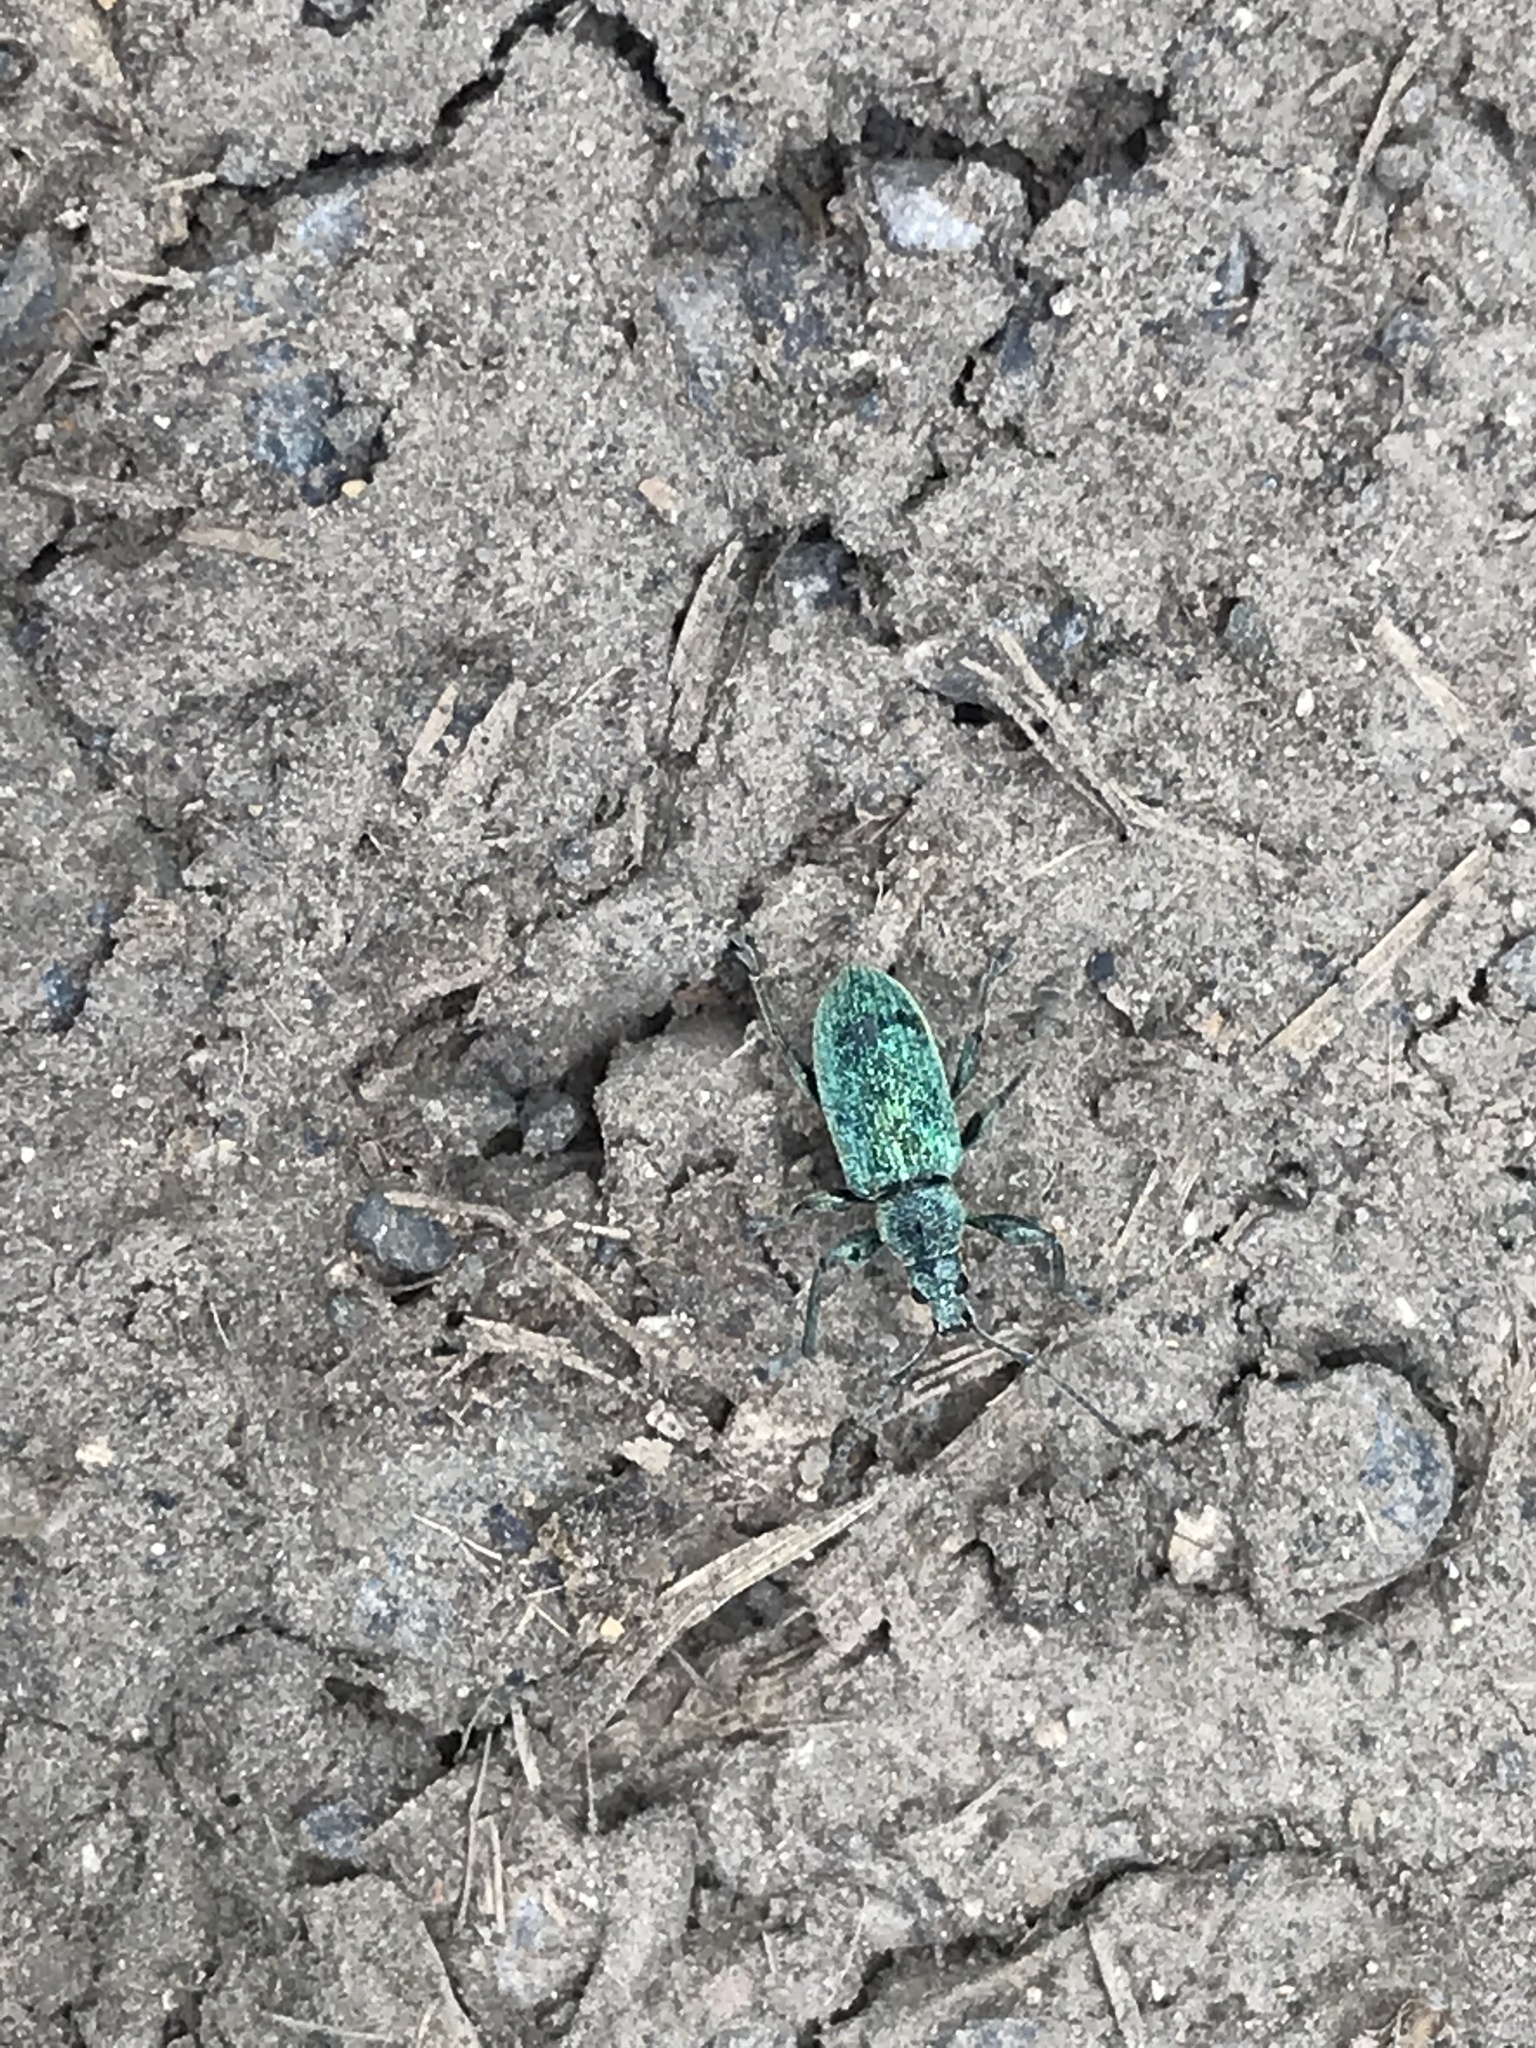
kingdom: Animalia
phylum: Arthropoda
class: Insecta
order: Coleoptera
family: Curculionidae
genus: Phyllobius
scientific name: Phyllobius pomaceus
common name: Green nettle weevil
